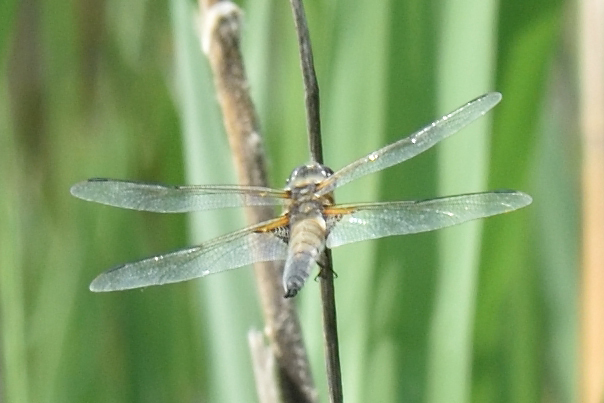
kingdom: Animalia
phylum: Arthropoda
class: Insecta
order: Odonata
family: Libellulidae
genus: Libellula
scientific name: Libellula quadrimaculata
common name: Four-spotted chaser
